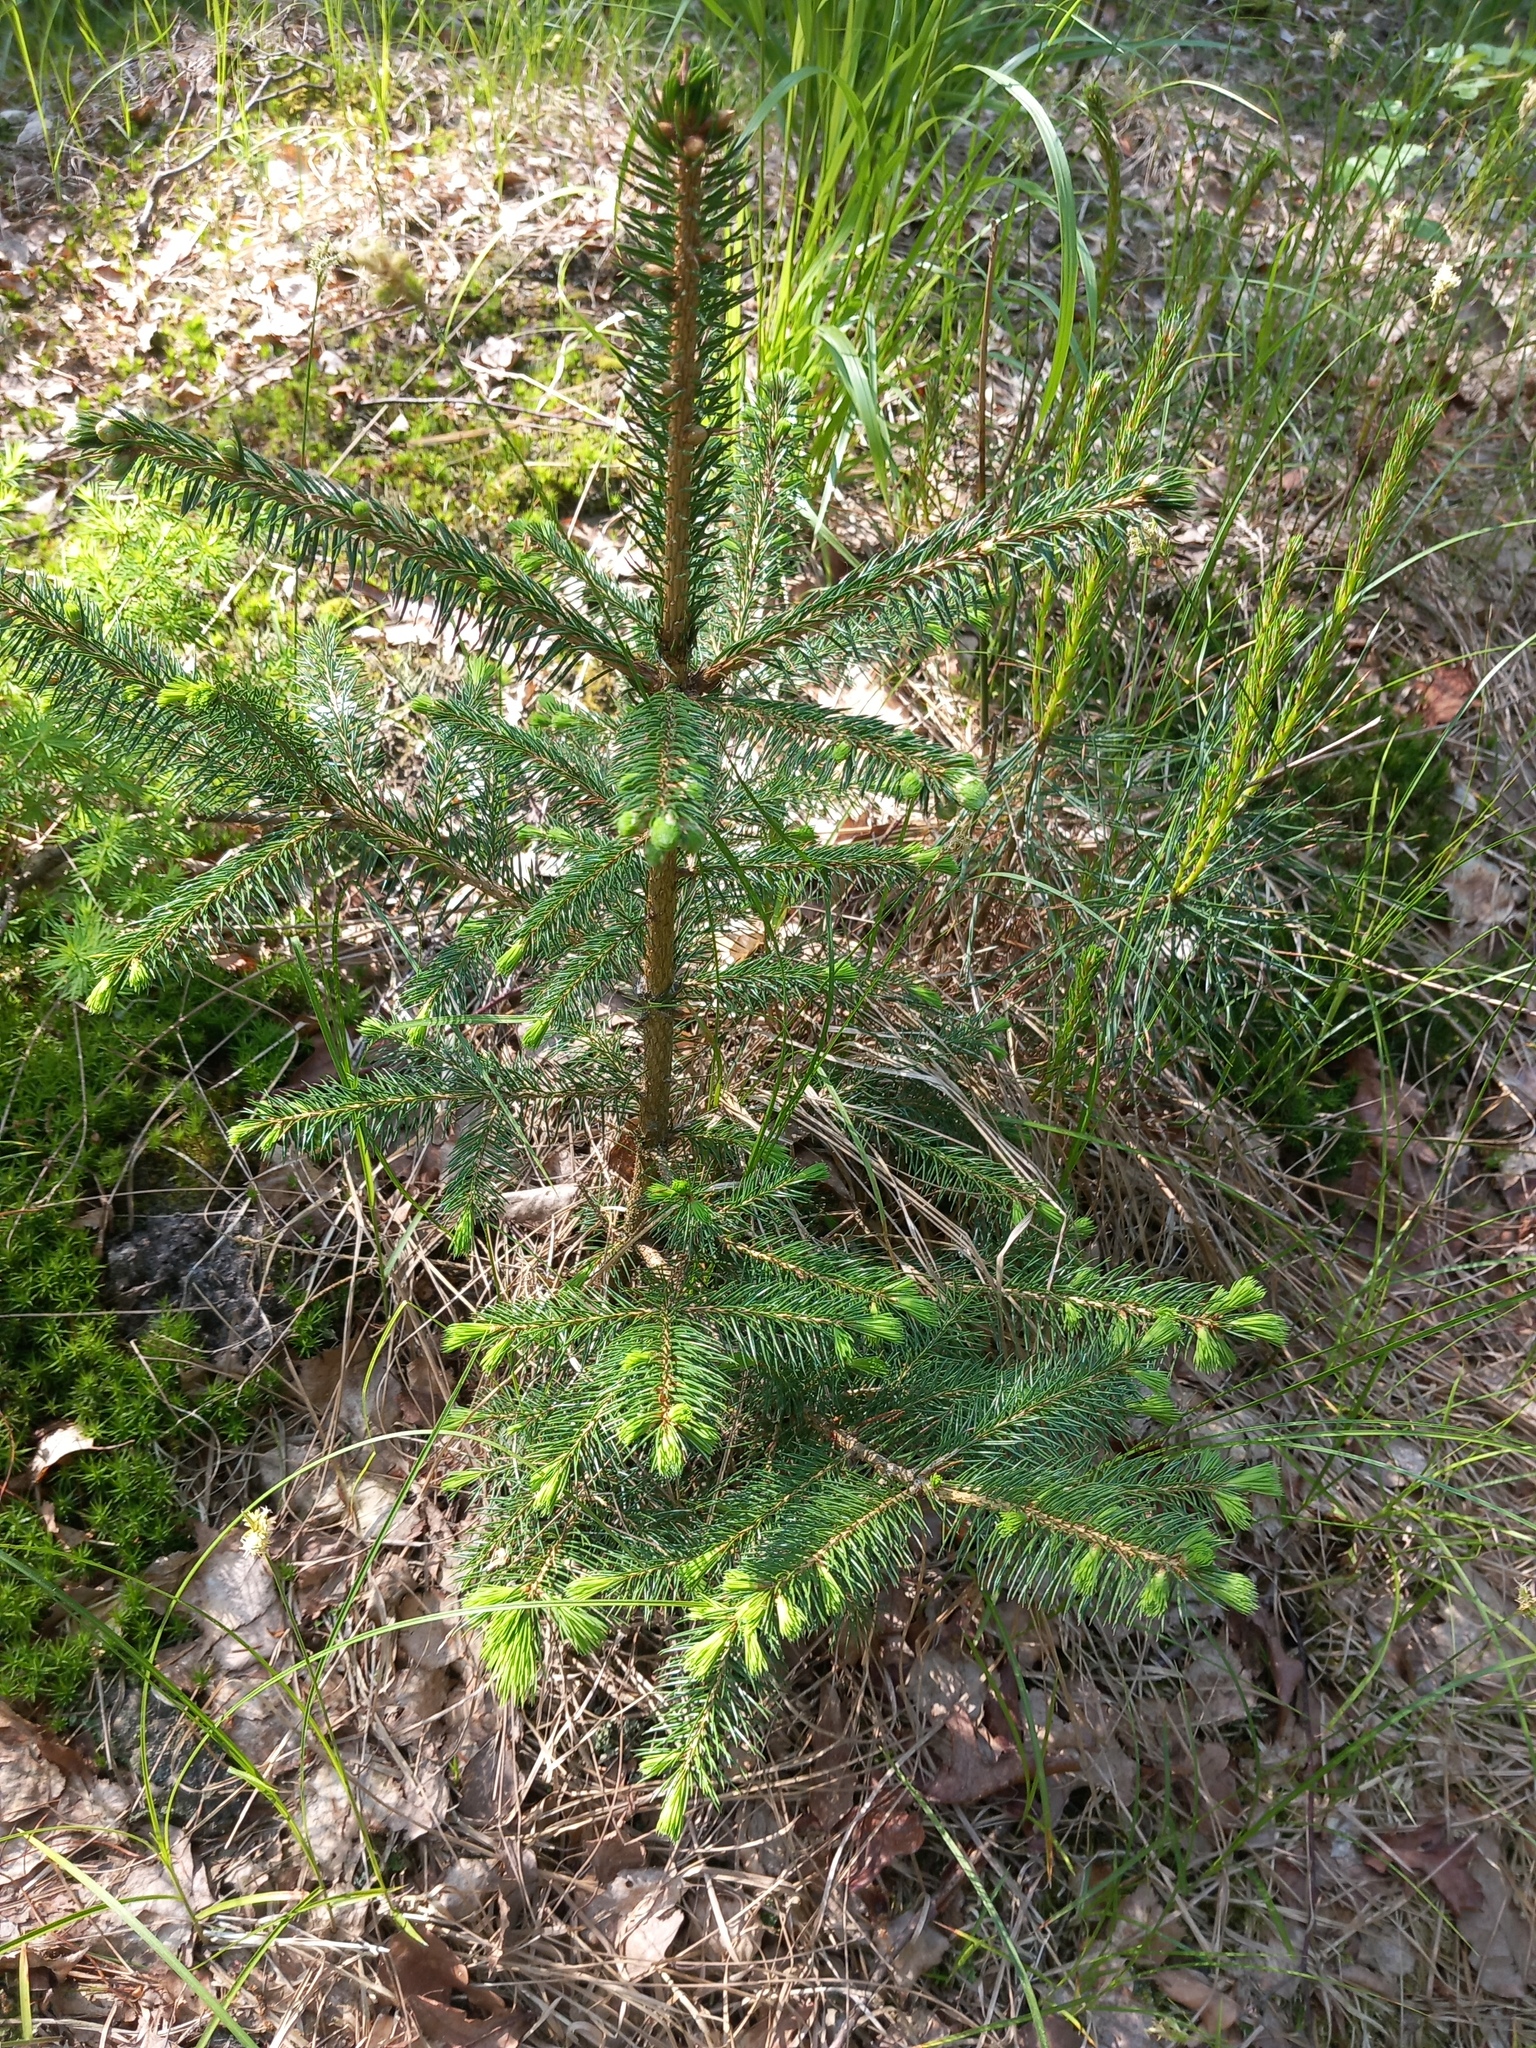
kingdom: Plantae
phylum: Tracheophyta
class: Pinopsida
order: Pinales
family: Pinaceae
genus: Picea
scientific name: Picea abies
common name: Norway spruce
